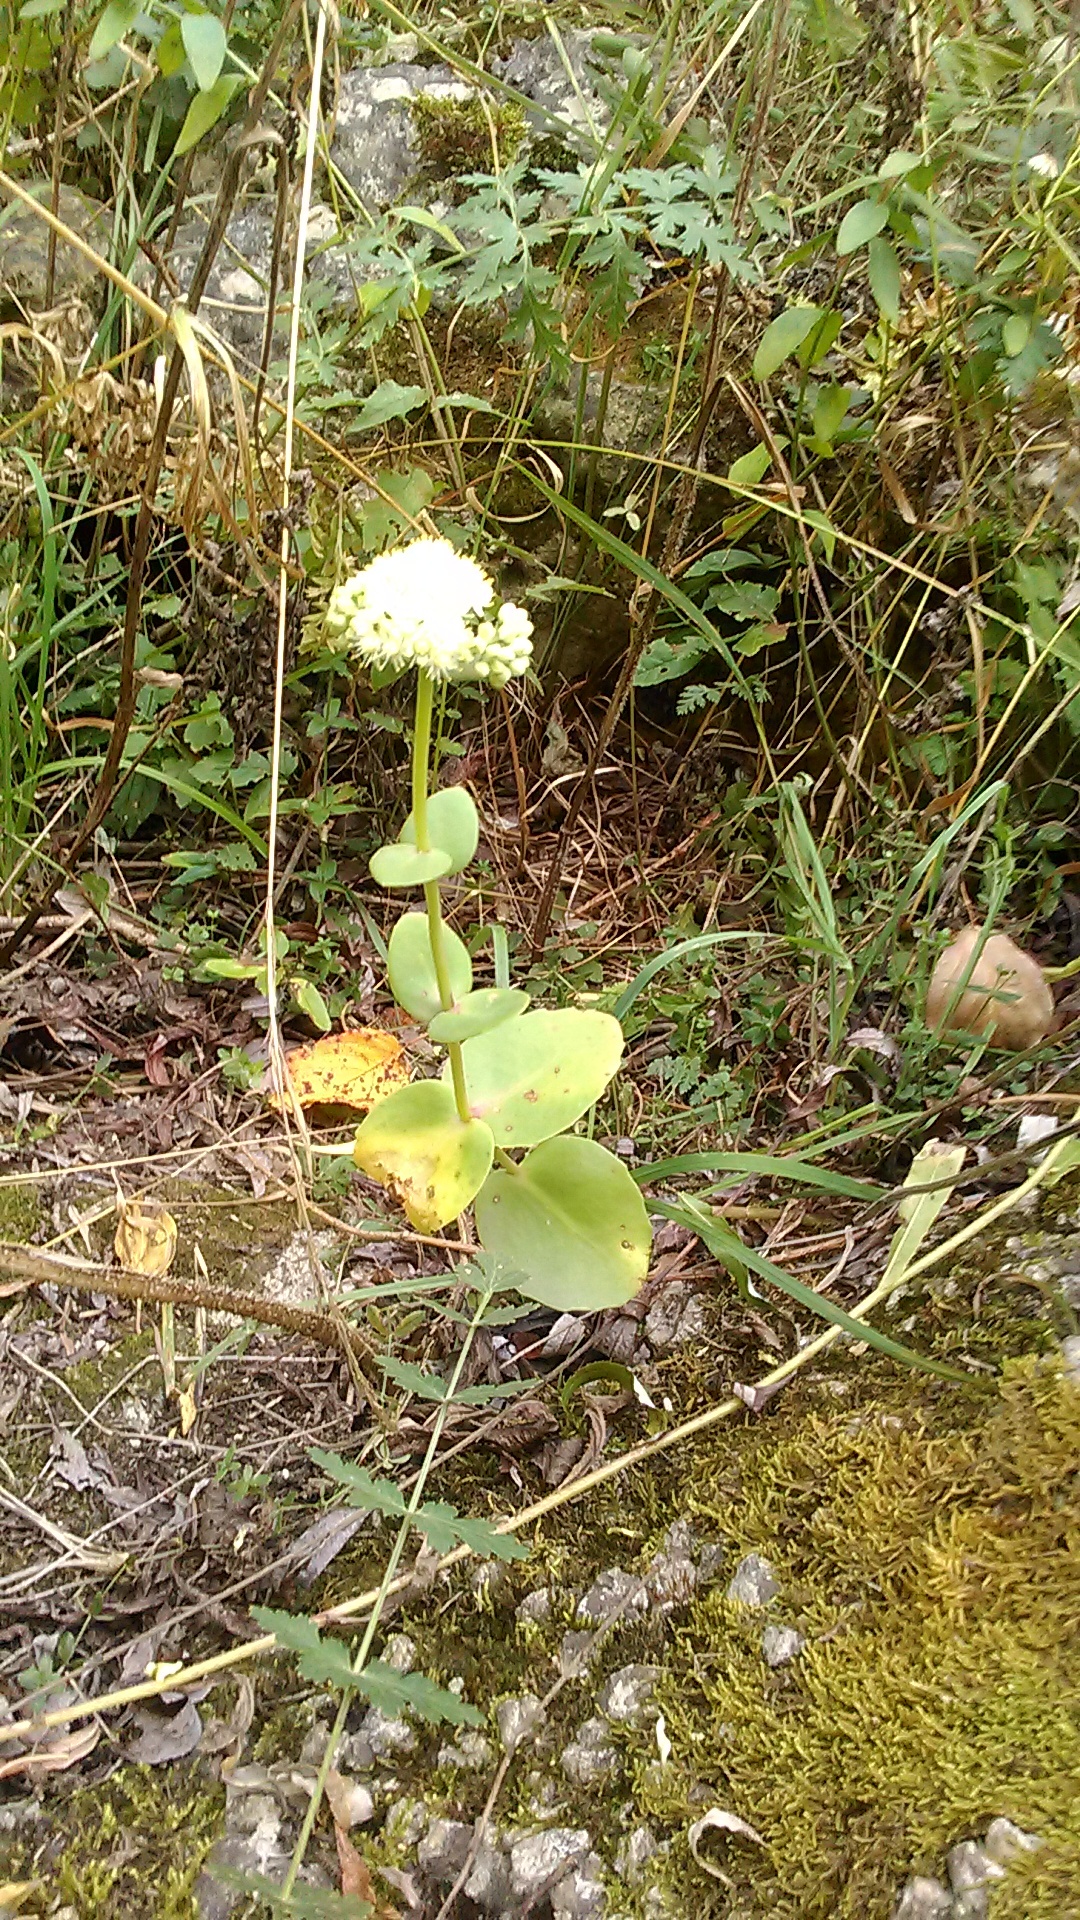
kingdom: Plantae
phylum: Tracheophyta
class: Magnoliopsida
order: Saxifragales
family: Crassulaceae
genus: Hylotelephium
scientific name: Hylotelephium maximum
